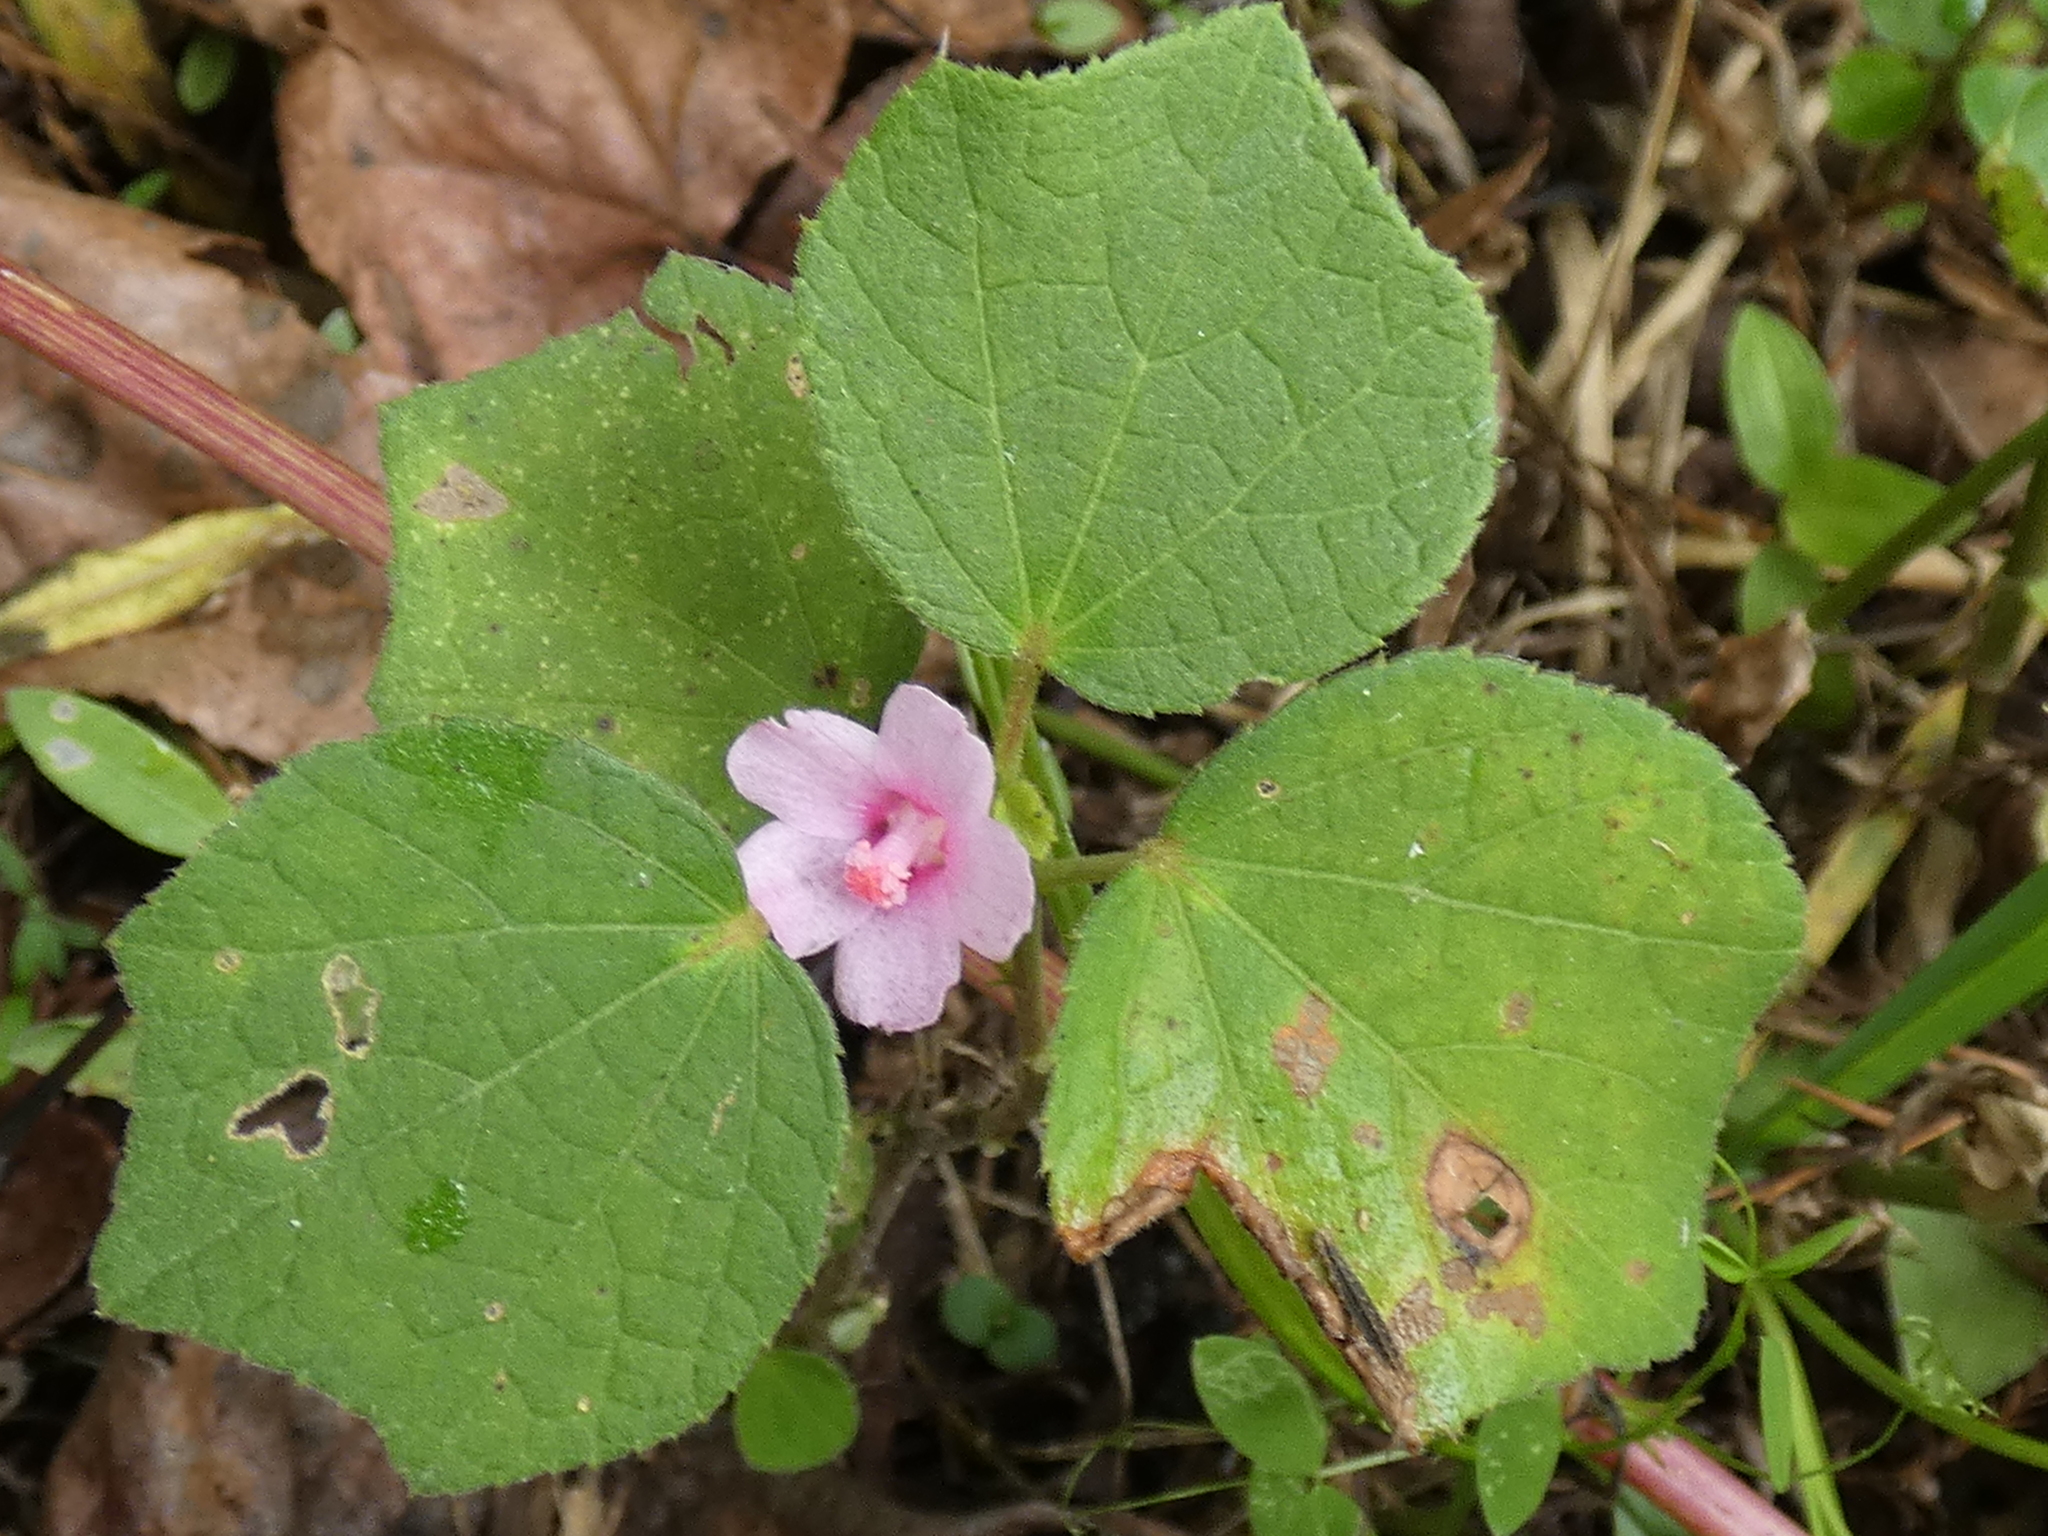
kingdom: Plantae
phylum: Tracheophyta
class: Magnoliopsida
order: Malvales
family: Malvaceae
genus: Urena
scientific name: Urena lobata
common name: Caesarweed
